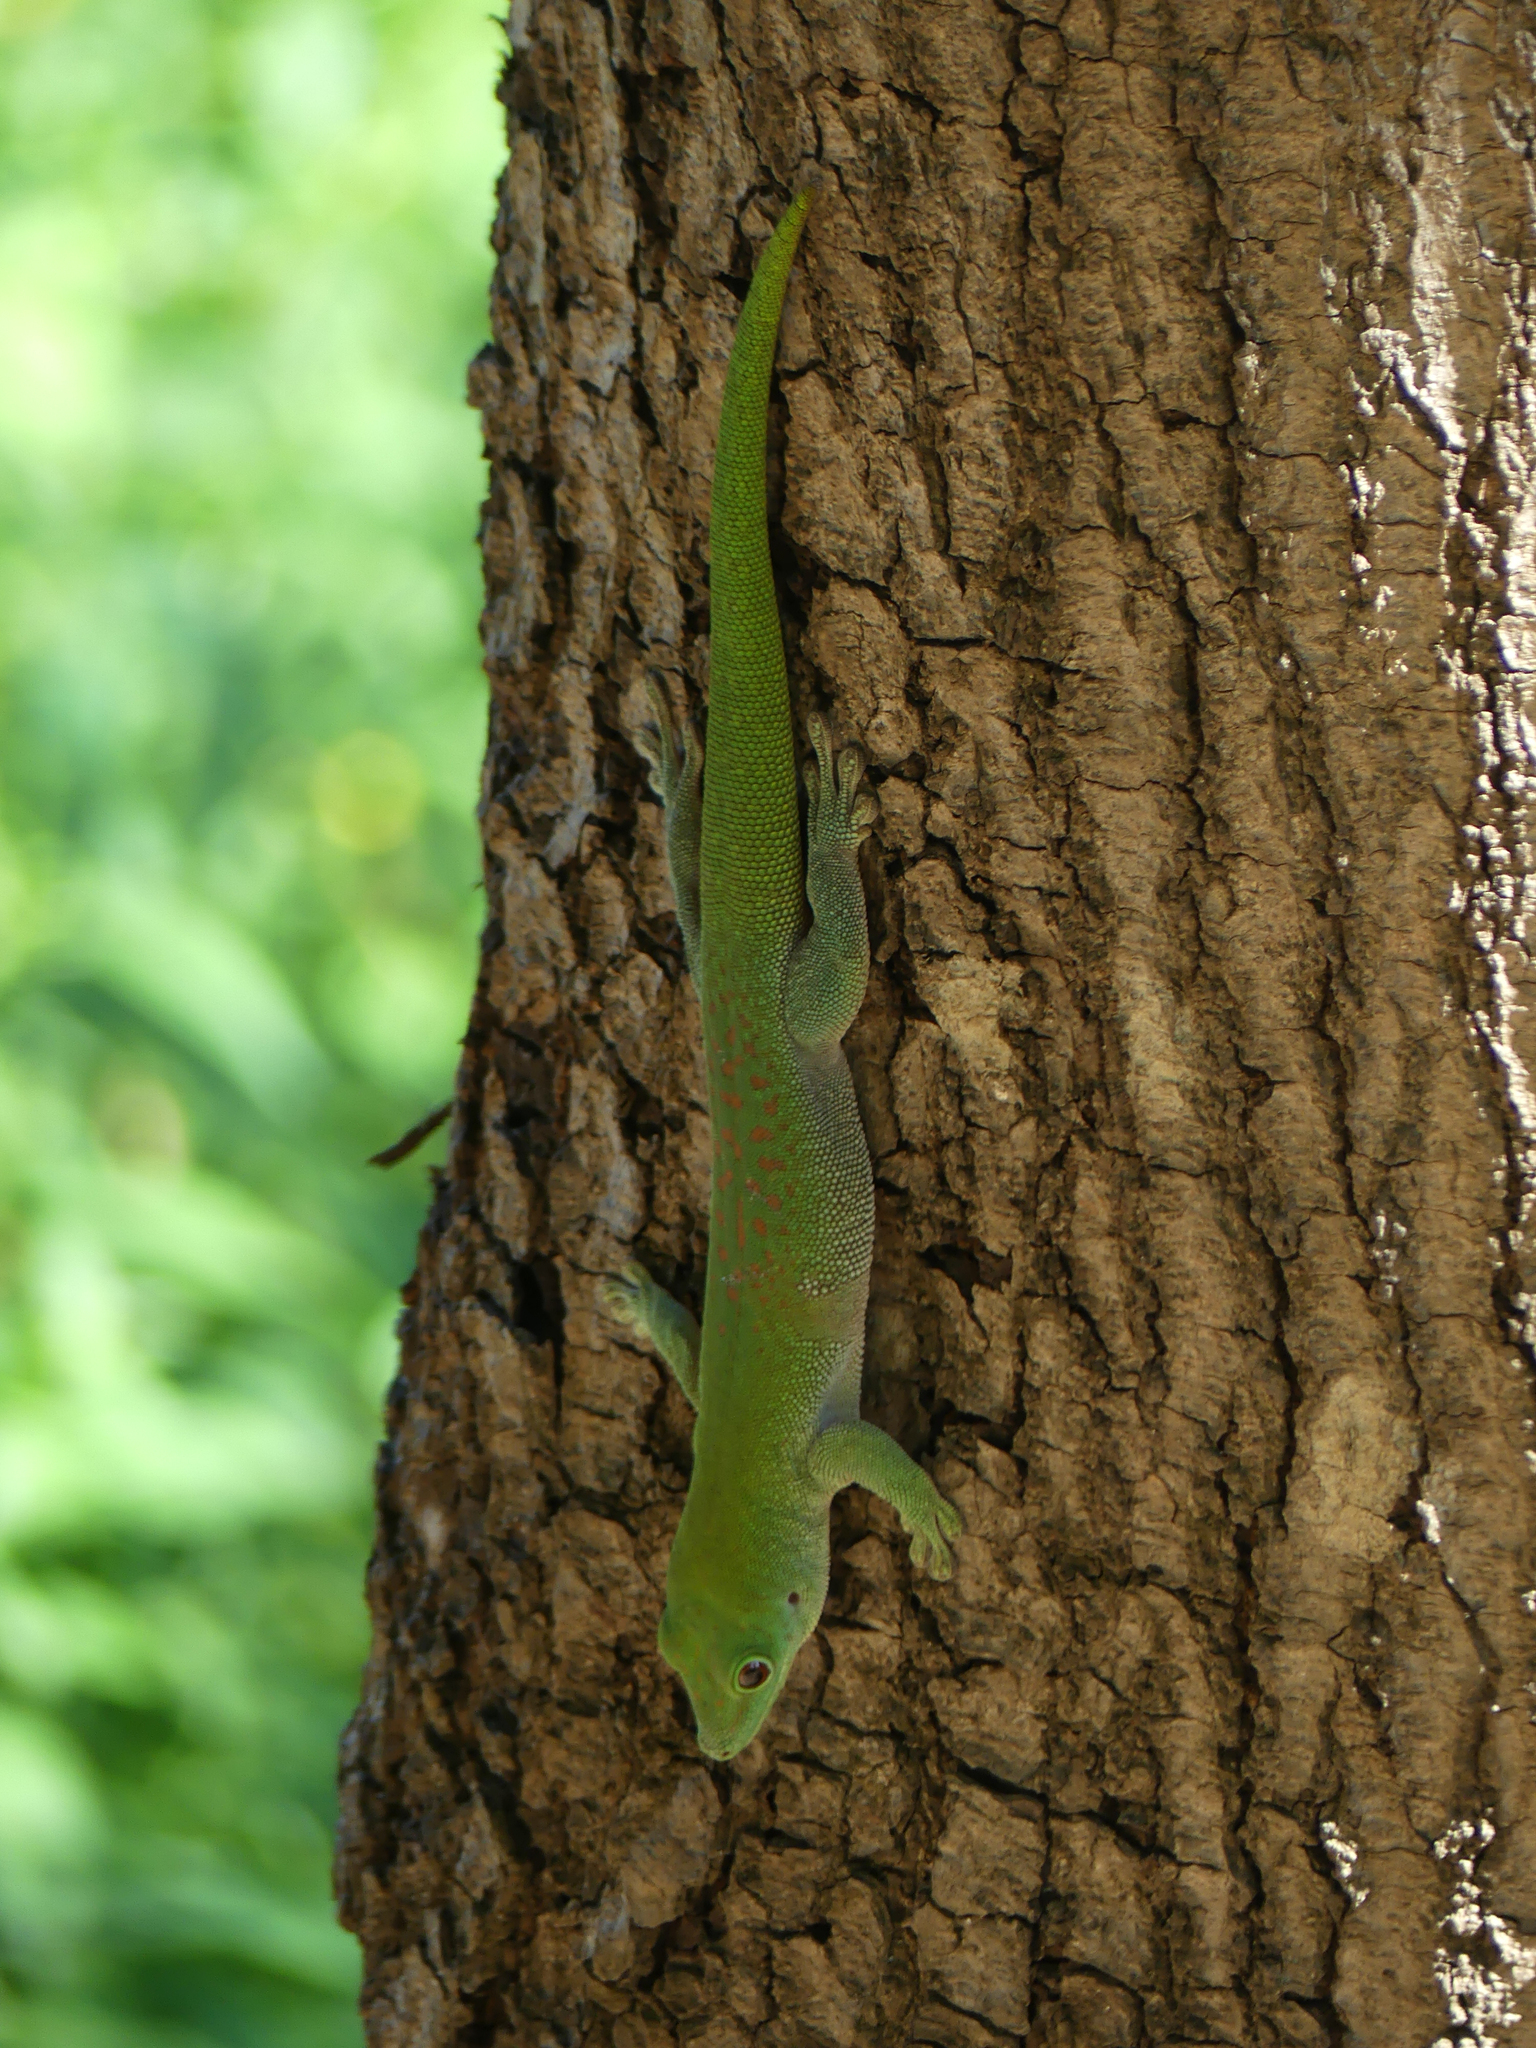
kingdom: Animalia
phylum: Chordata
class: Squamata
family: Gekkonidae
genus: Phelsuma
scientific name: Phelsuma kochi
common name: Madagascar day gecko
